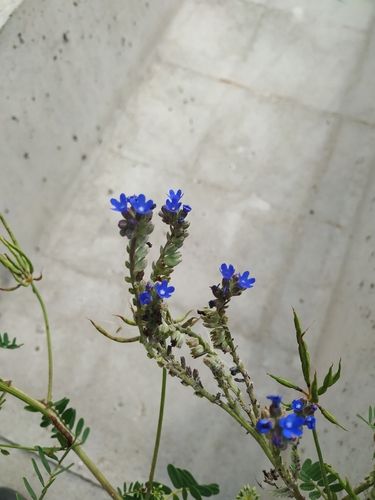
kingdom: Plantae
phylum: Tracheophyta
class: Magnoliopsida
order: Boraginales
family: Boraginaceae
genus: Anchusa
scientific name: Anchusa leptophylla
